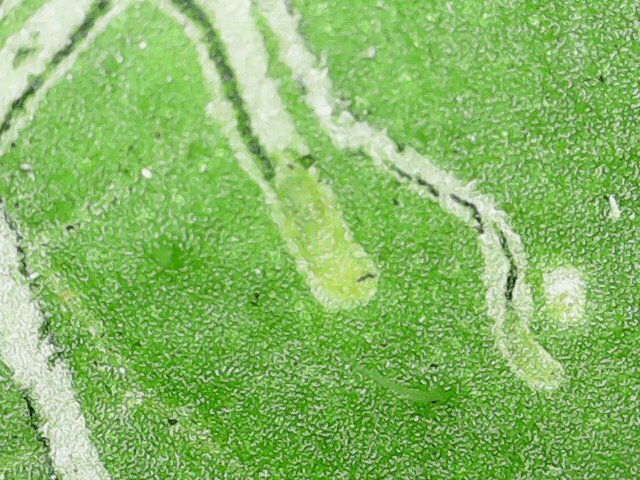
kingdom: Animalia
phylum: Arthropoda
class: Insecta
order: Diptera
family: Agromyzidae
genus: Liriomyza
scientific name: Liriomyza bryoniae
